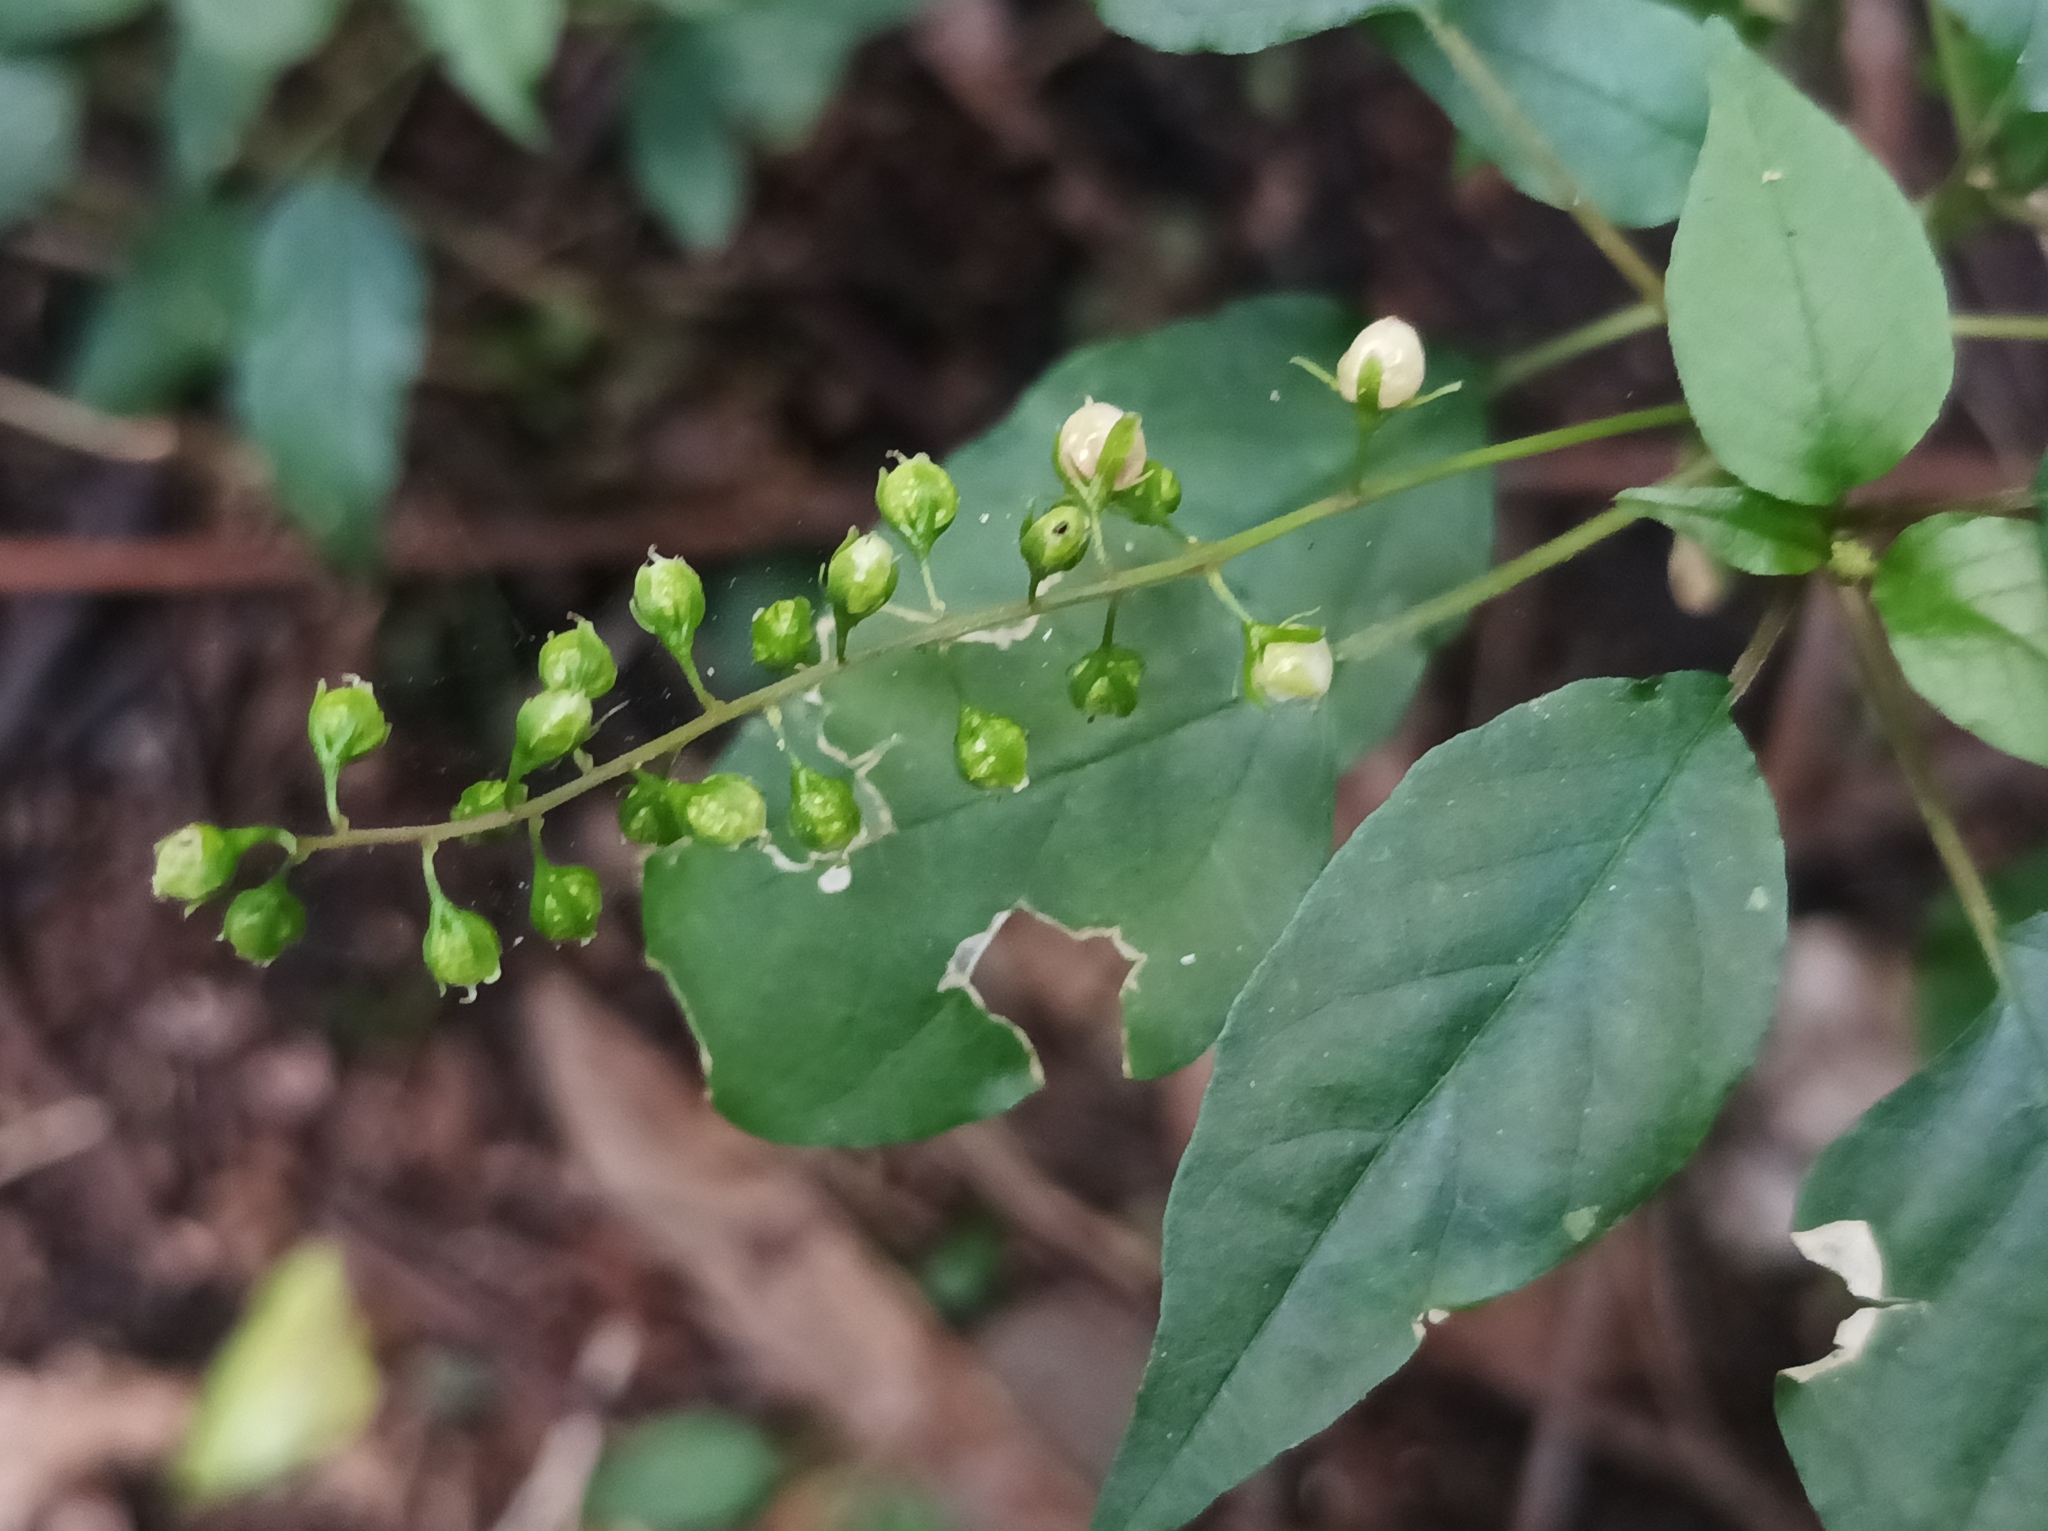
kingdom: Plantae
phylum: Tracheophyta
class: Magnoliopsida
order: Caryophyllales
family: Phytolaccaceae
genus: Rivina
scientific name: Rivina humilis
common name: Rougeplant
